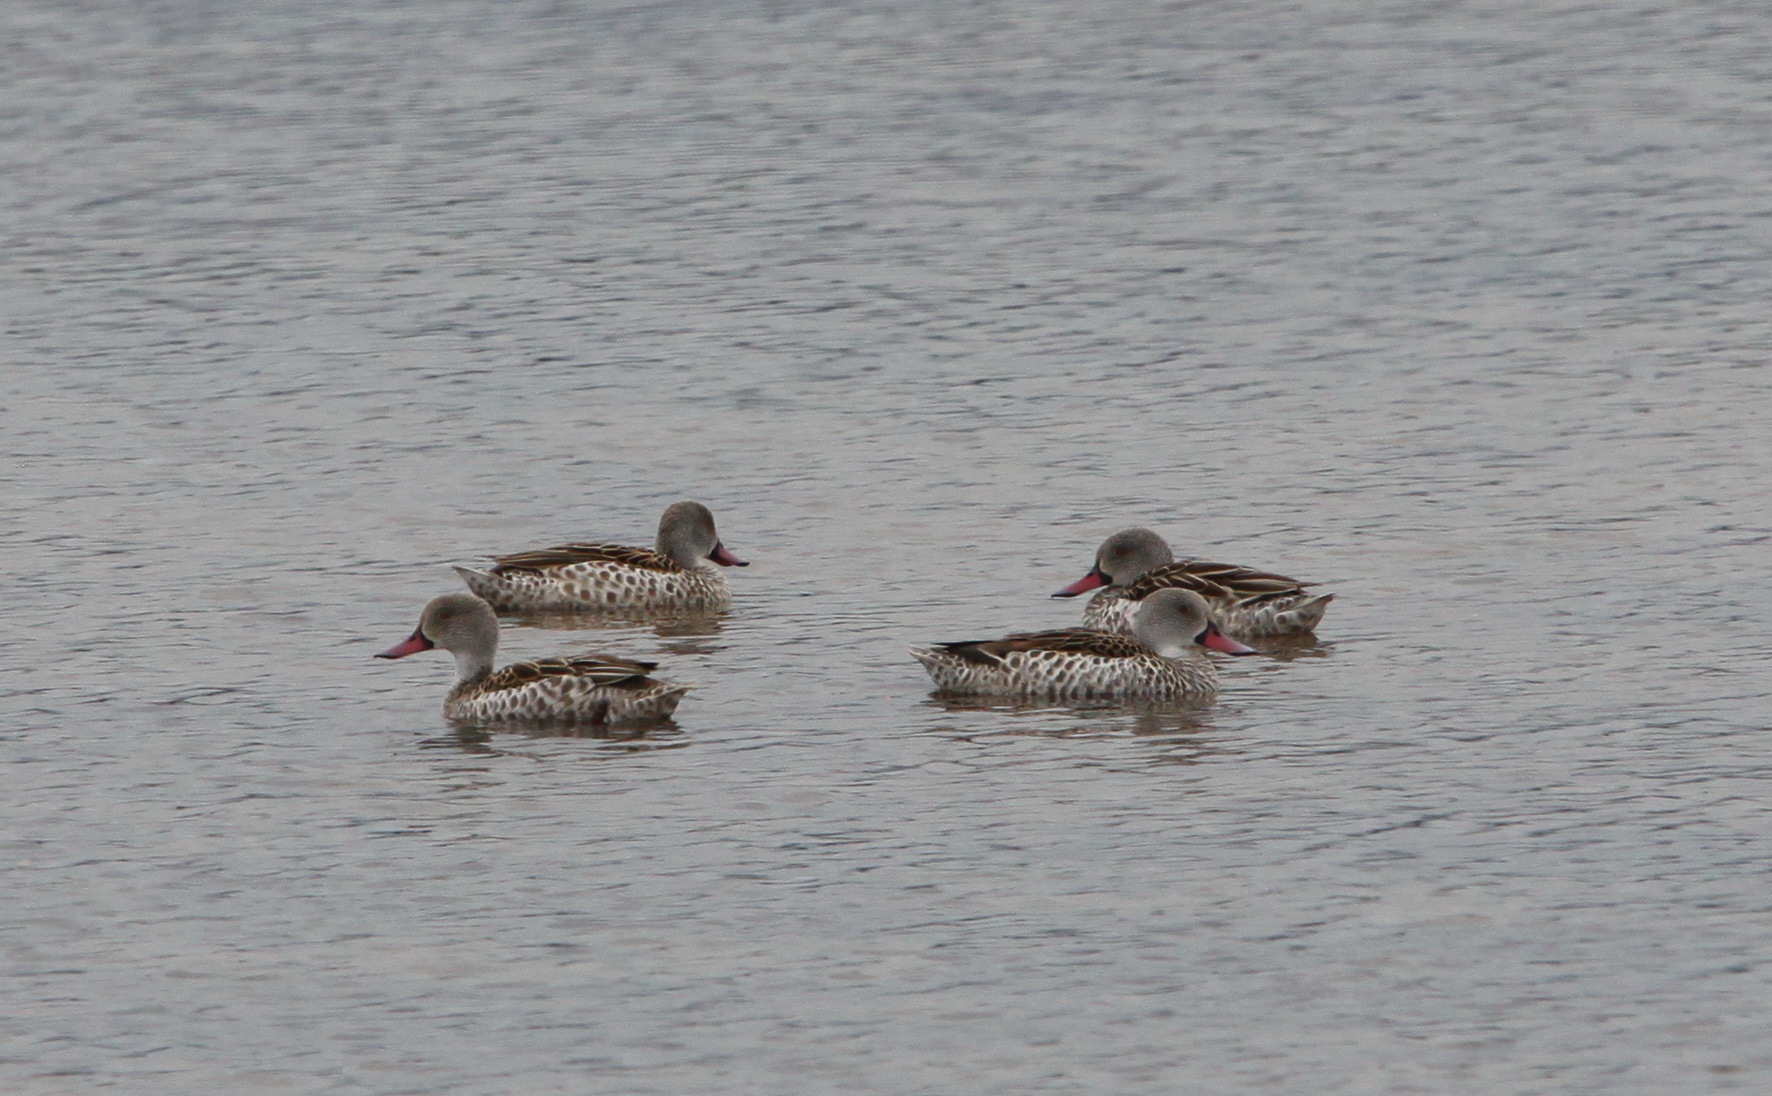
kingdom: Animalia
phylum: Chordata
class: Aves
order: Anseriformes
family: Anatidae
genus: Anas
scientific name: Anas capensis
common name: Cape teal
